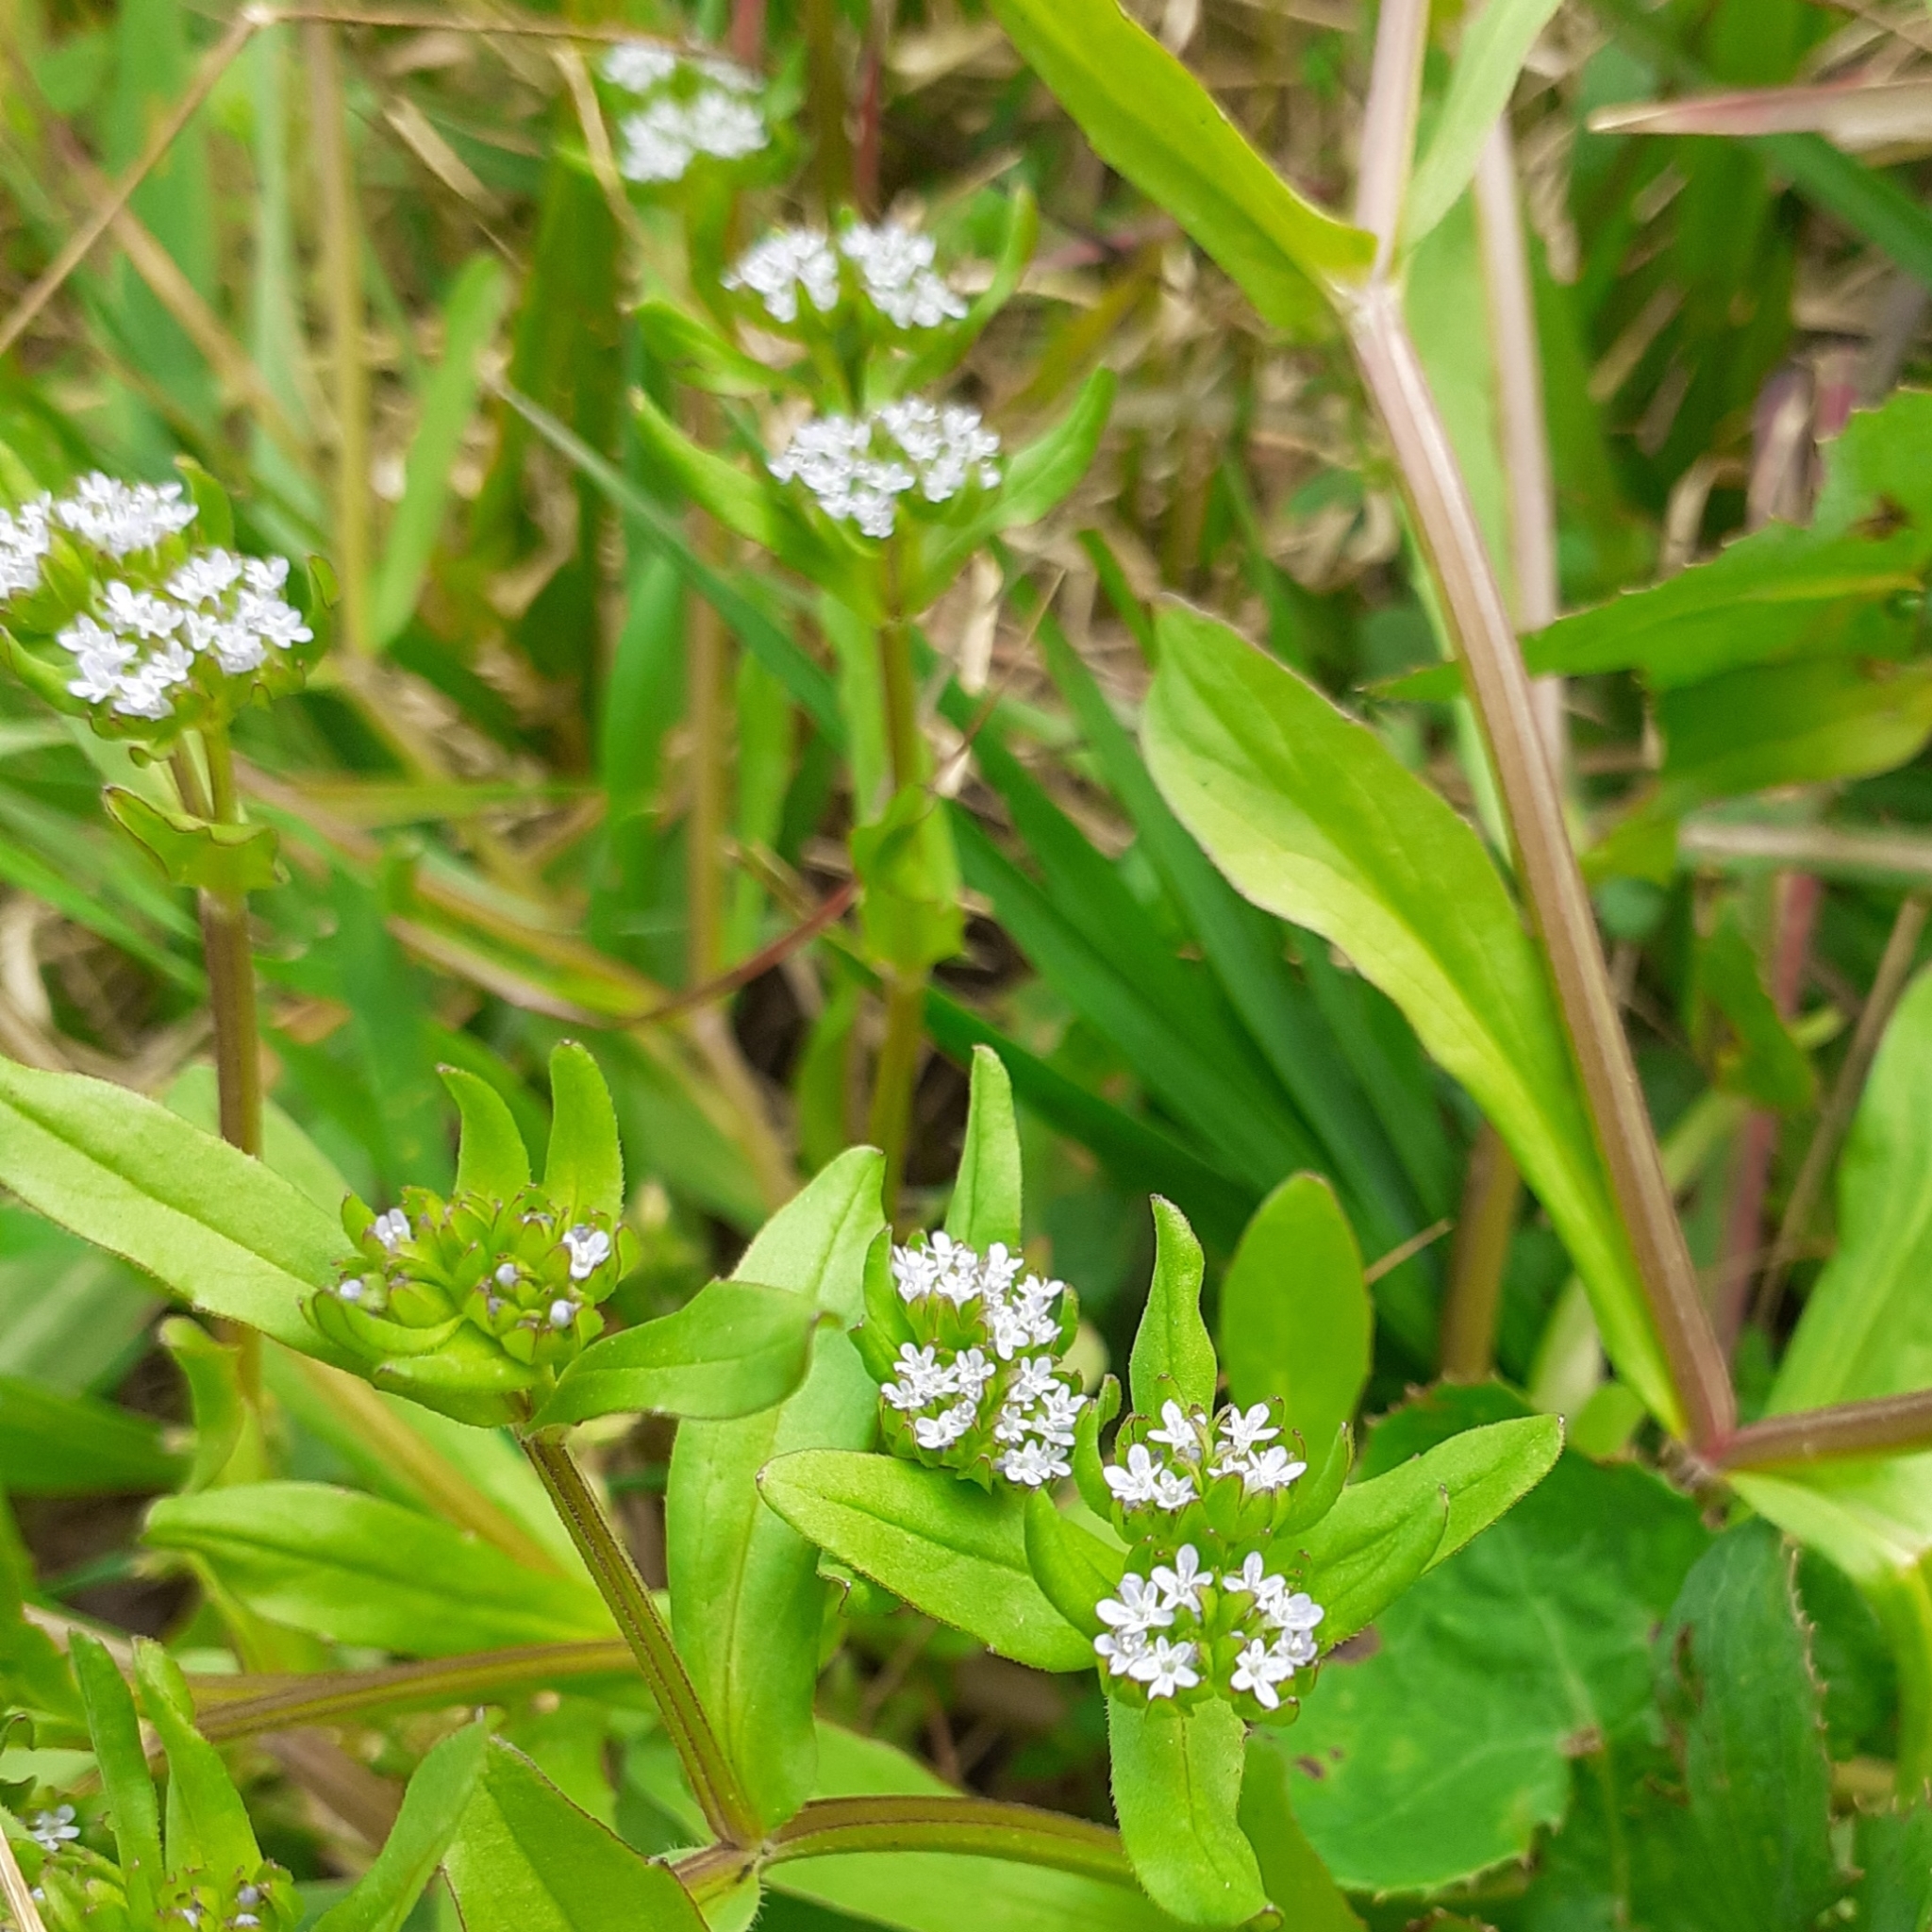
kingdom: Plantae
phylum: Tracheophyta
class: Magnoliopsida
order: Dipsacales
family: Caprifoliaceae
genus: Valerianella
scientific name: Valerianella locusta
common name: Common cornsalad
